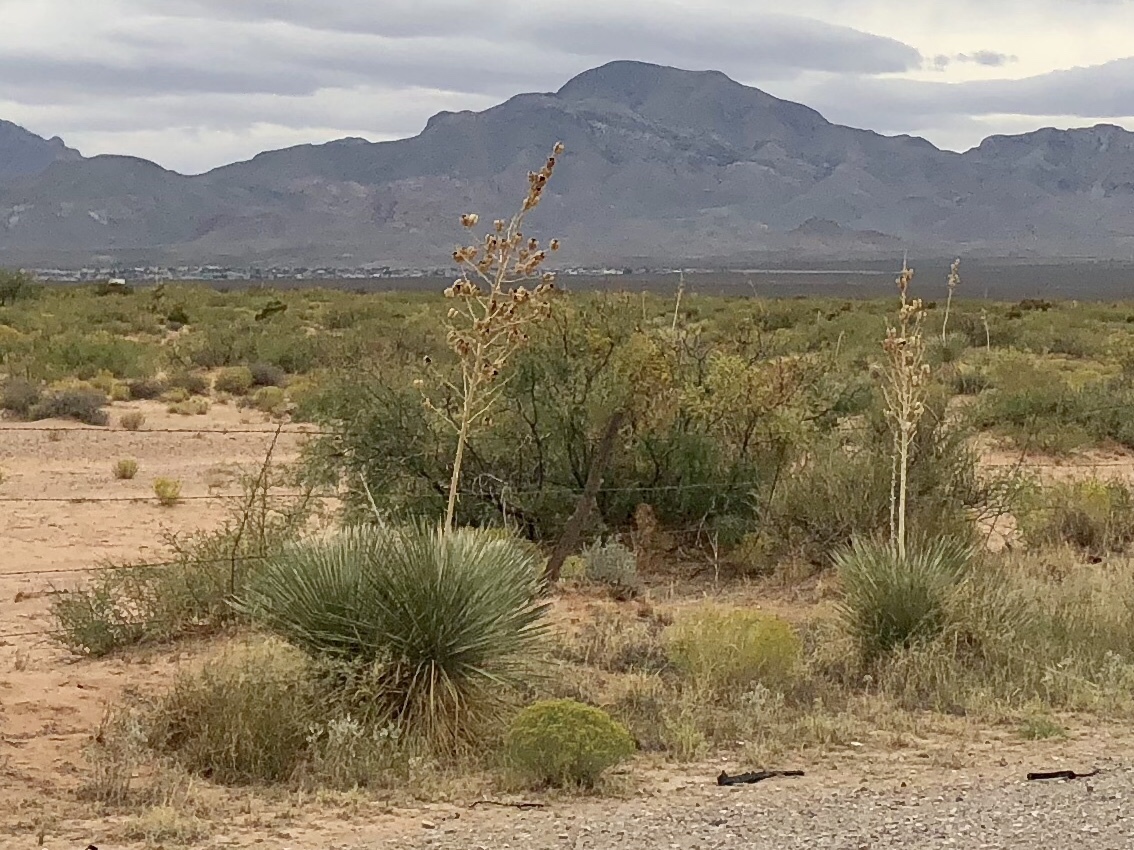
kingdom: Plantae
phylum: Tracheophyta
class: Liliopsida
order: Asparagales
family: Asparagaceae
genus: Yucca
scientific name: Yucca elata
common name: Palmella
